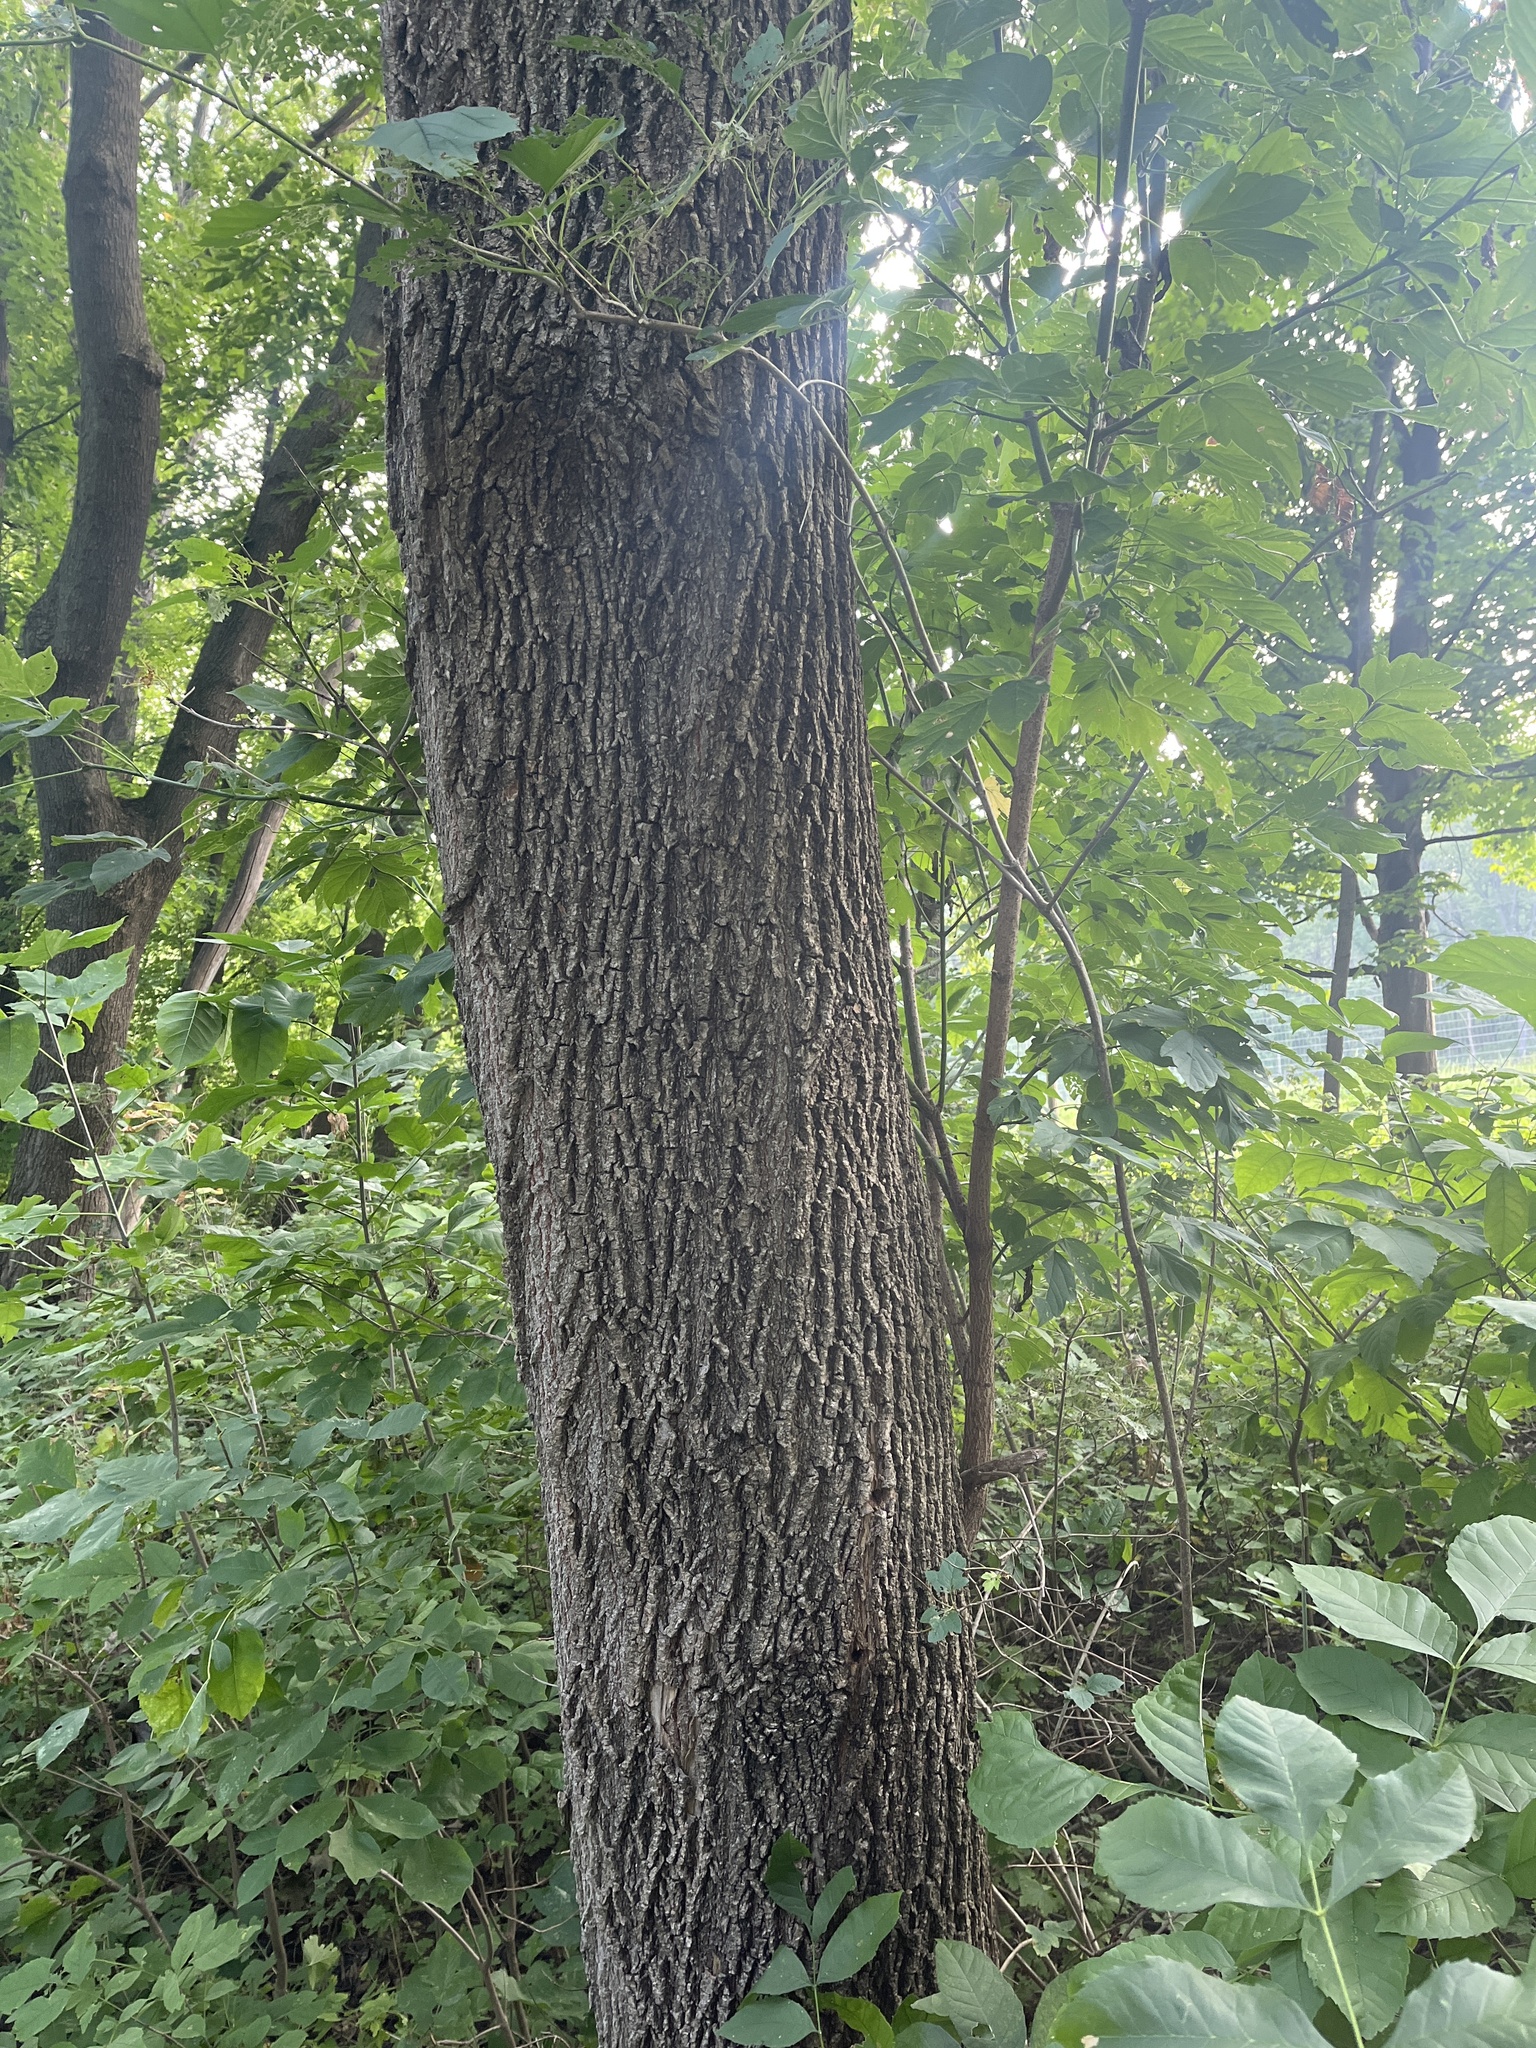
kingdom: Plantae
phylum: Tracheophyta
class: Magnoliopsida
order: Sapindales
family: Sapindaceae
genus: Acer
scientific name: Acer negundo
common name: Ashleaf maple
